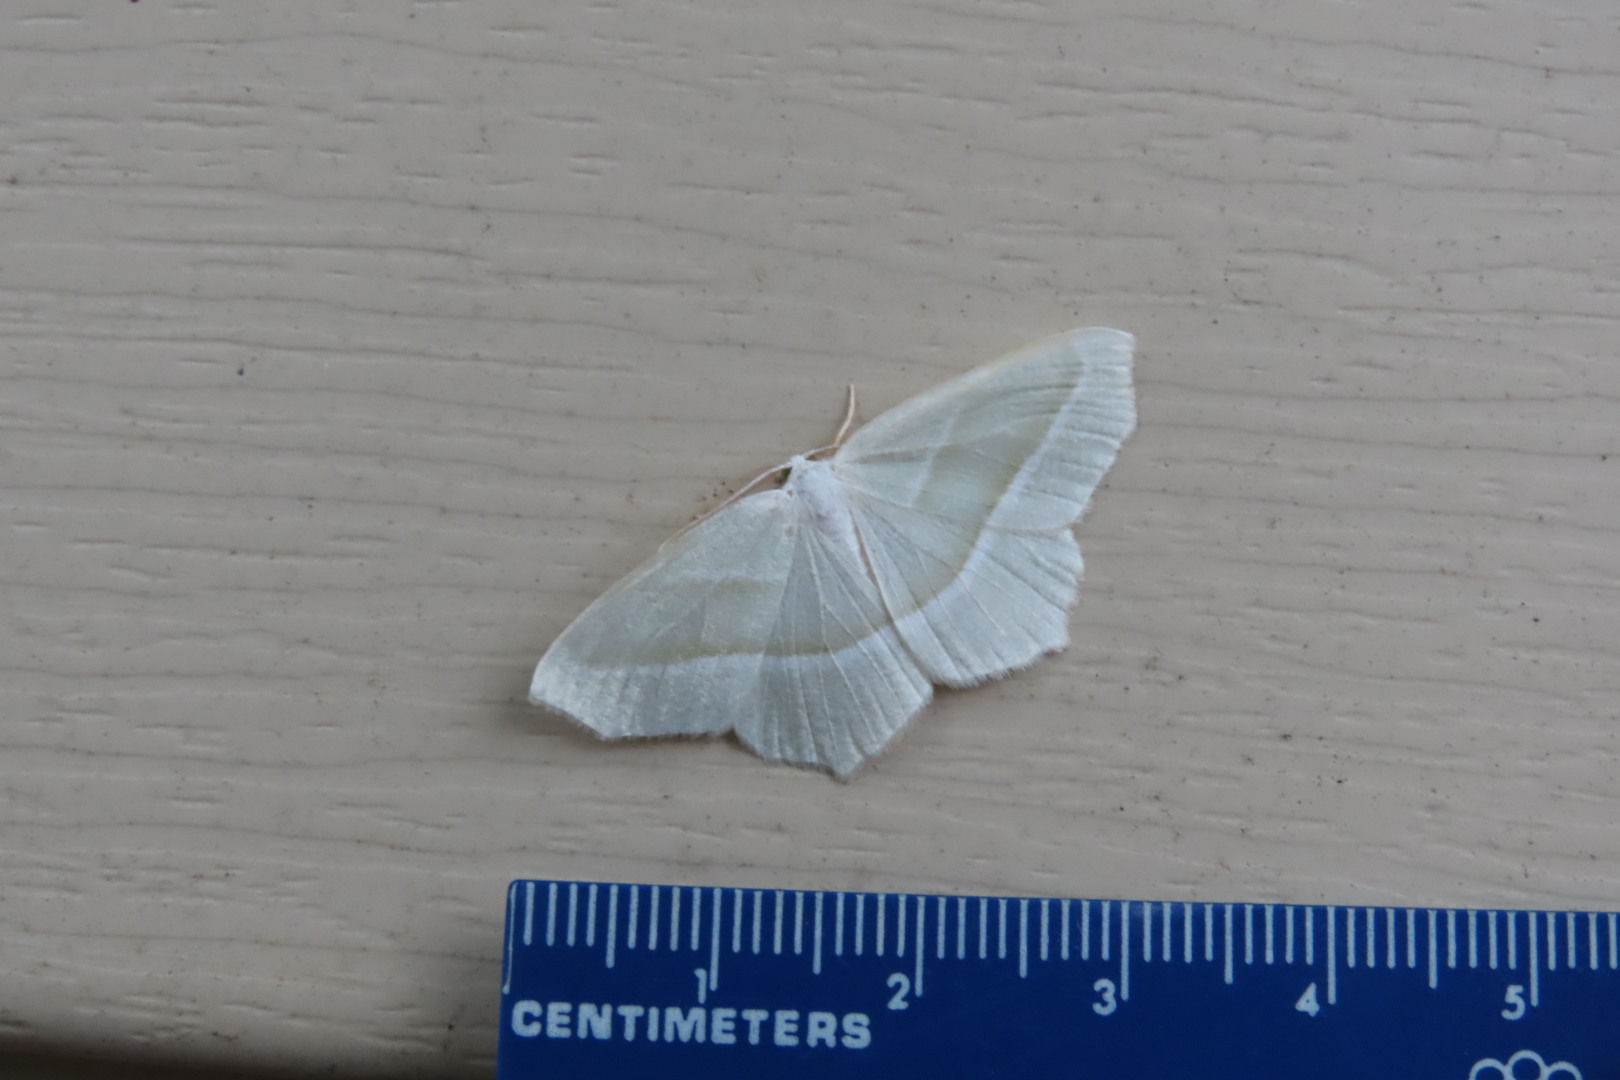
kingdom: Animalia
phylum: Arthropoda
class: Insecta
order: Lepidoptera
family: Geometridae
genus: Campaea
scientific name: Campaea perlata
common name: Fringed looper
